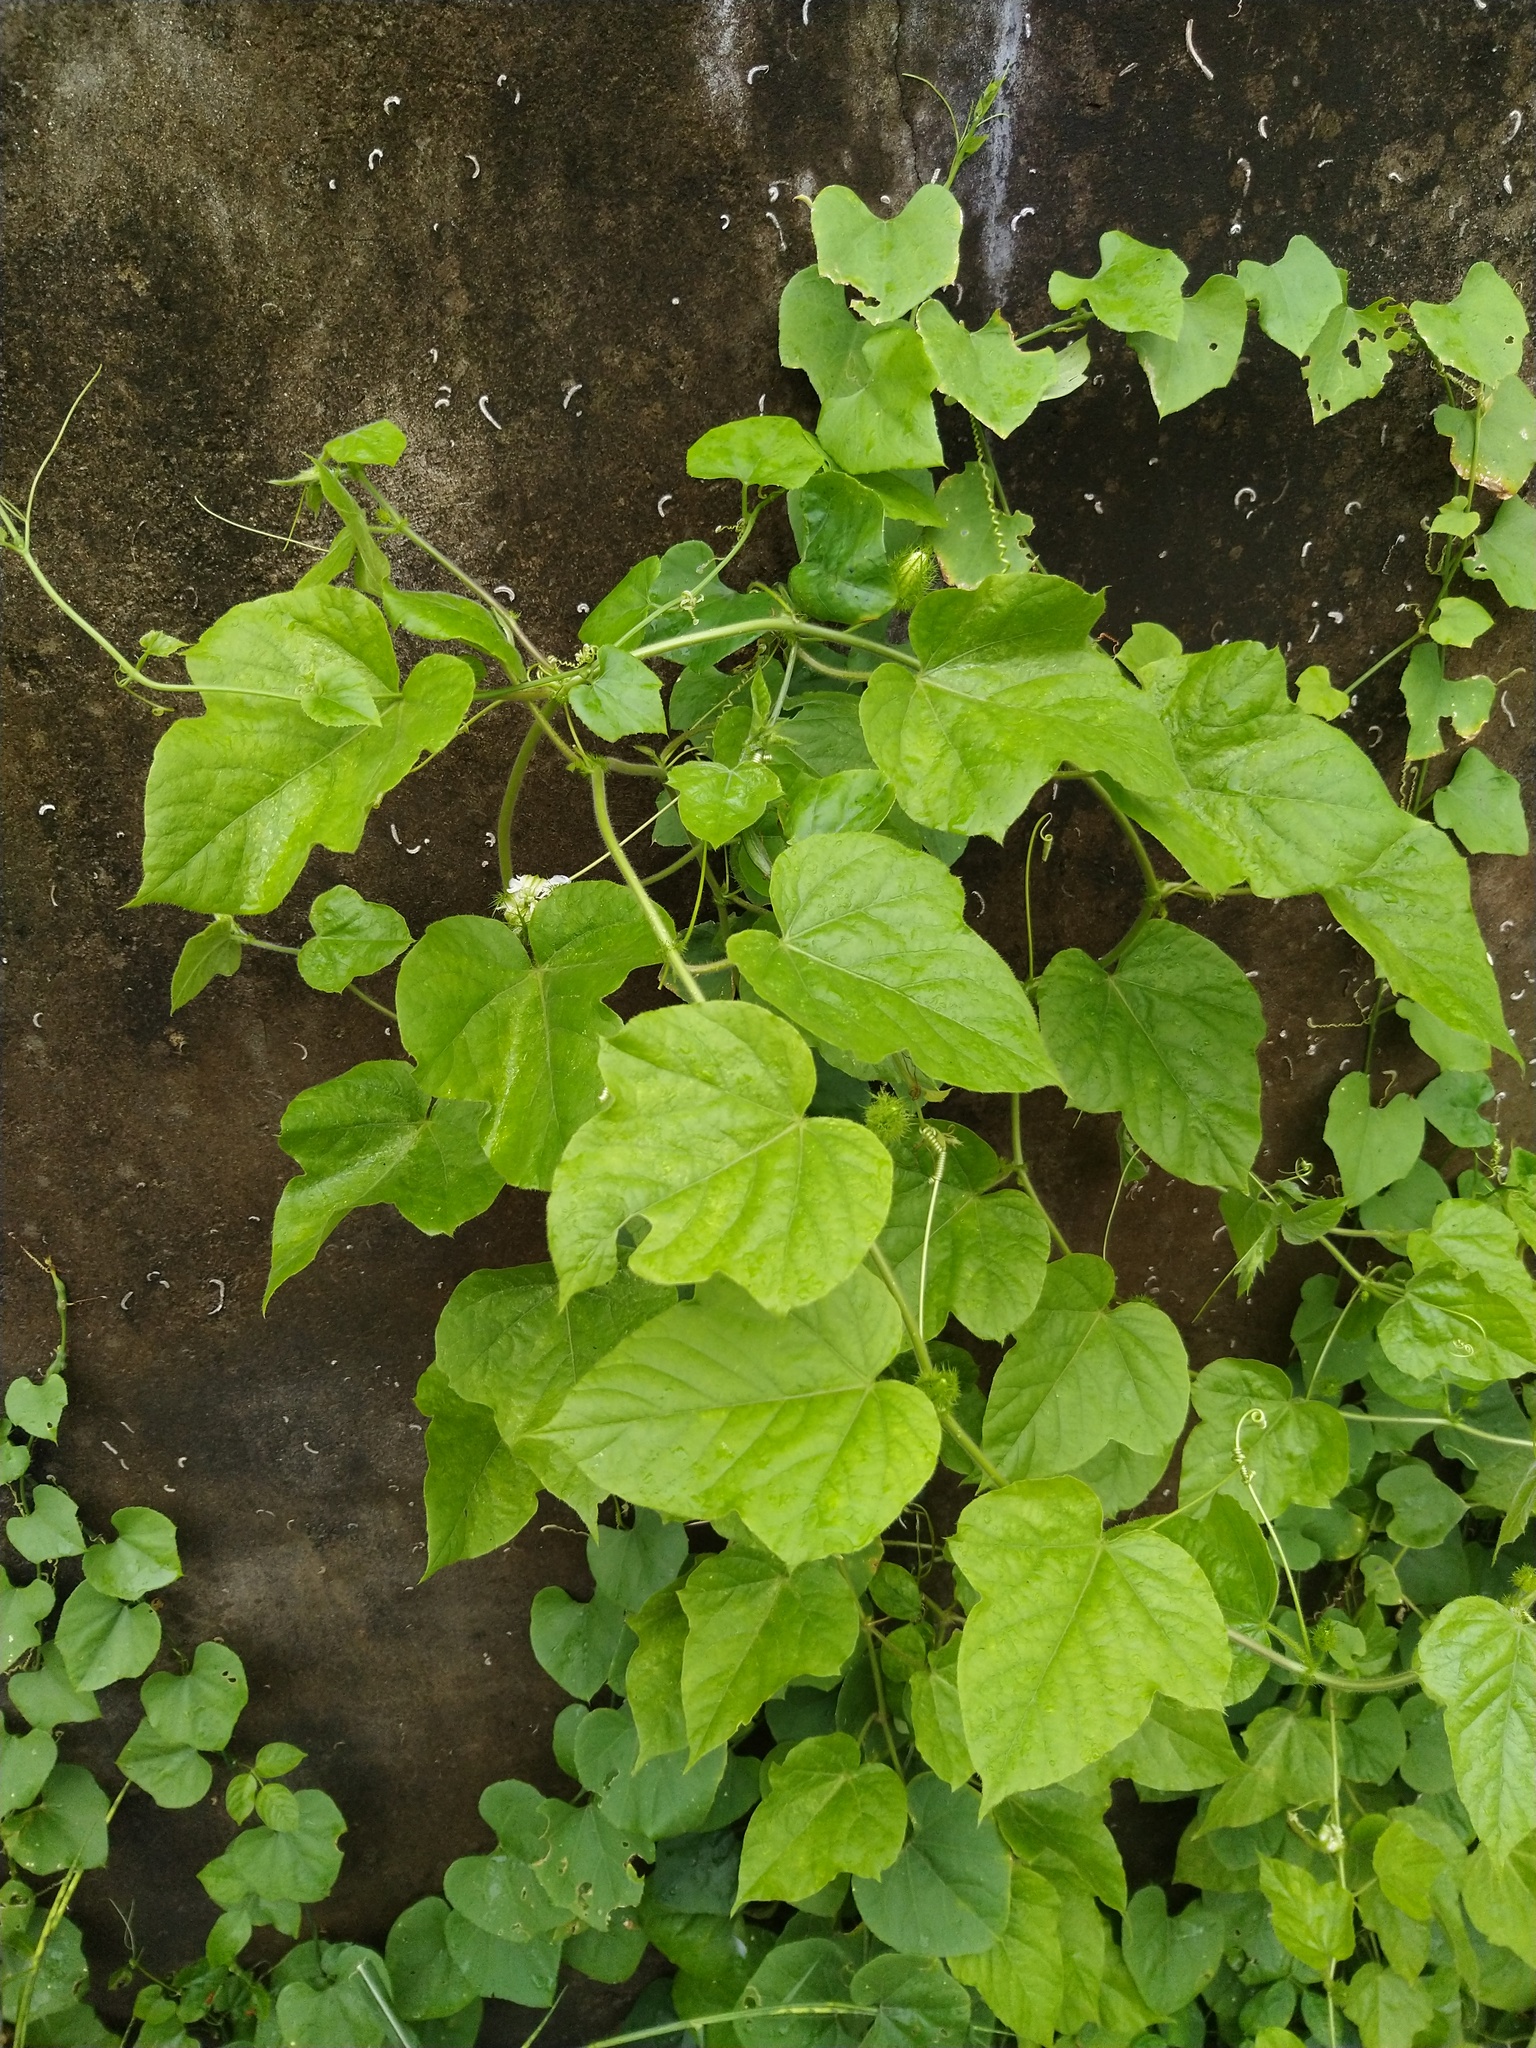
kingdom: Plantae
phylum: Tracheophyta
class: Magnoliopsida
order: Malpighiales
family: Passifloraceae
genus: Passiflora
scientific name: Passiflora foetida
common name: Fetid passionflower
